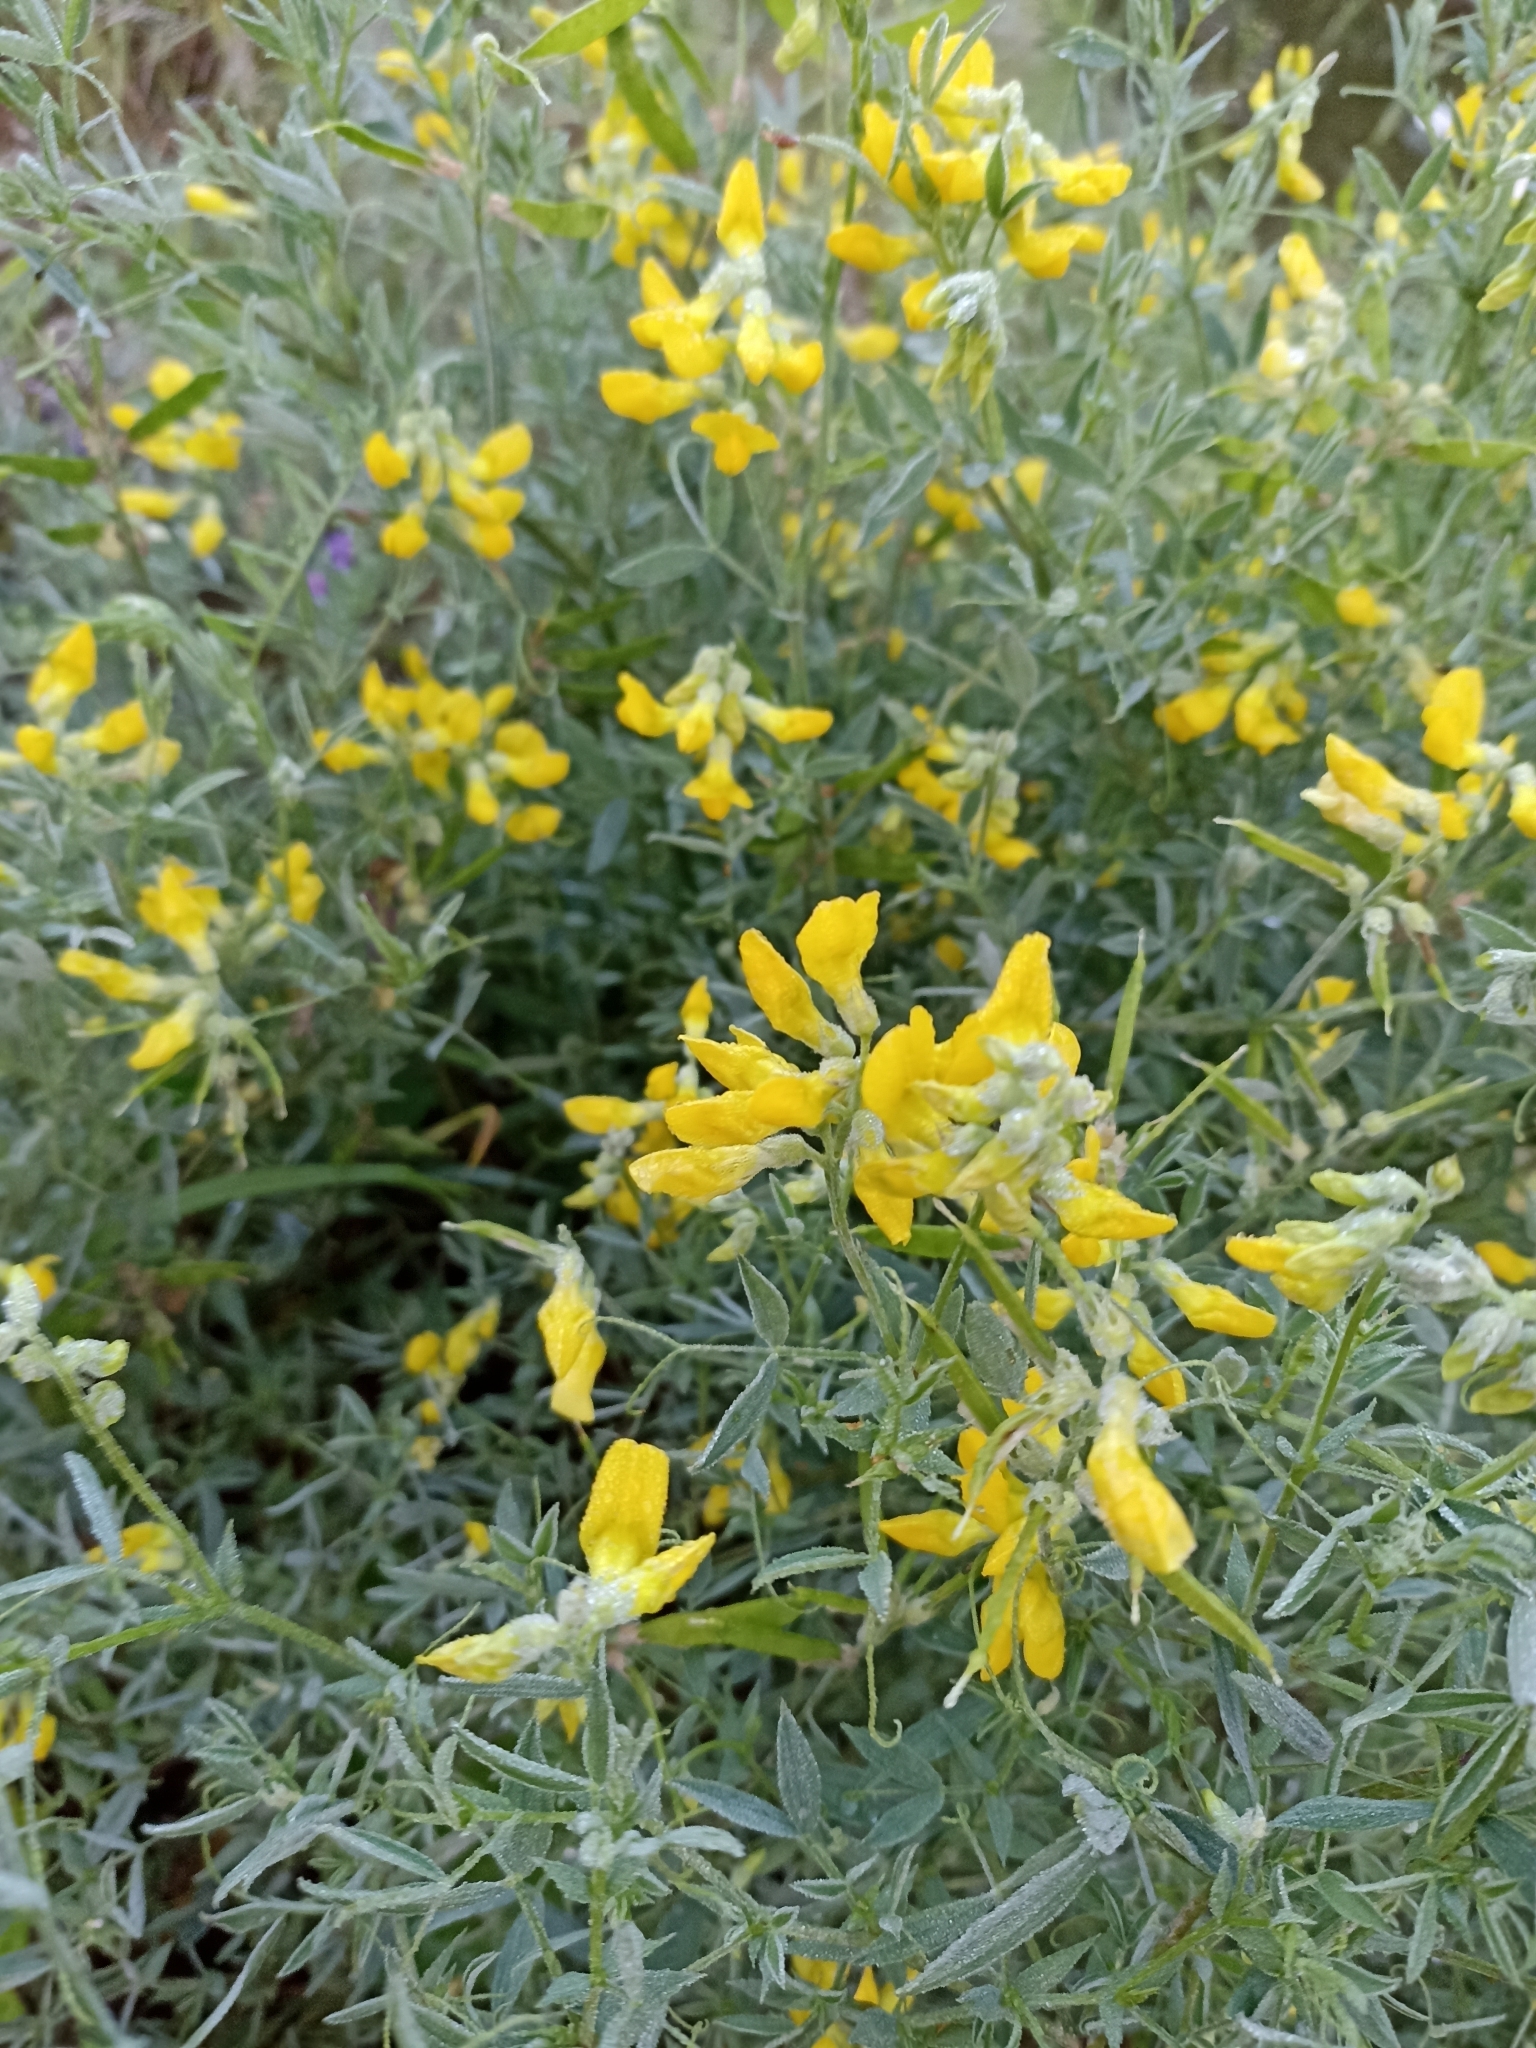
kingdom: Plantae
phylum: Tracheophyta
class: Magnoliopsida
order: Fabales
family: Fabaceae
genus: Lathyrus
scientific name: Lathyrus pratensis
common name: Meadow vetchling
